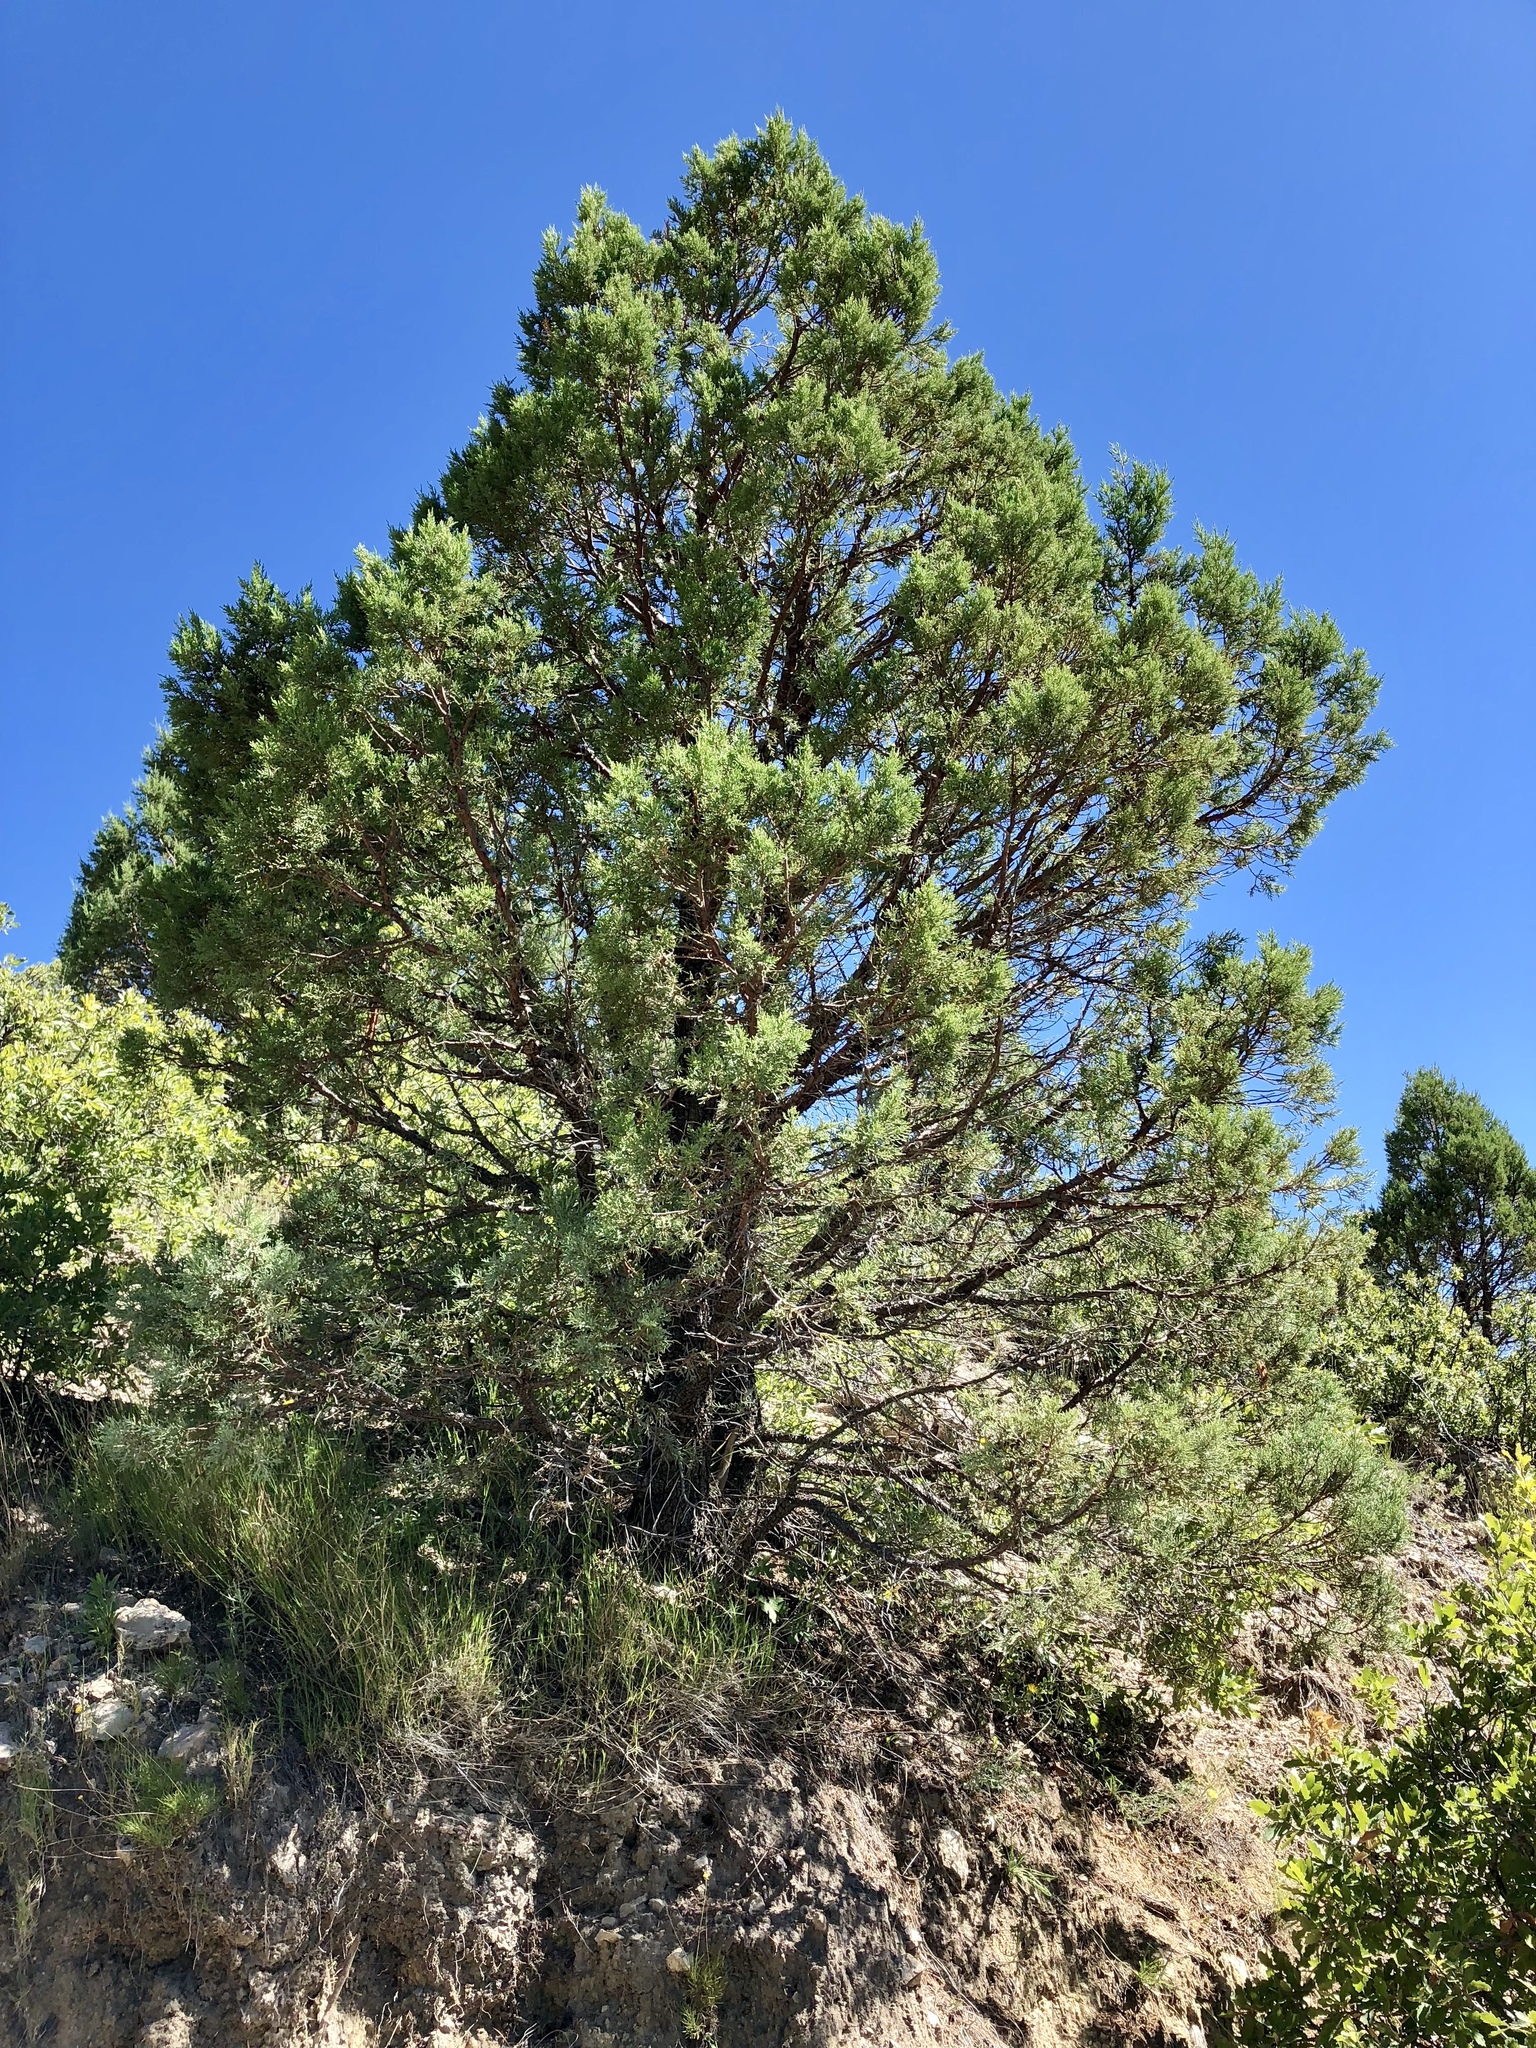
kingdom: Plantae
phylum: Tracheophyta
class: Pinopsida
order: Pinales
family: Cupressaceae
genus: Juniperus
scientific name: Juniperus deppeana
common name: Alligator juniper
